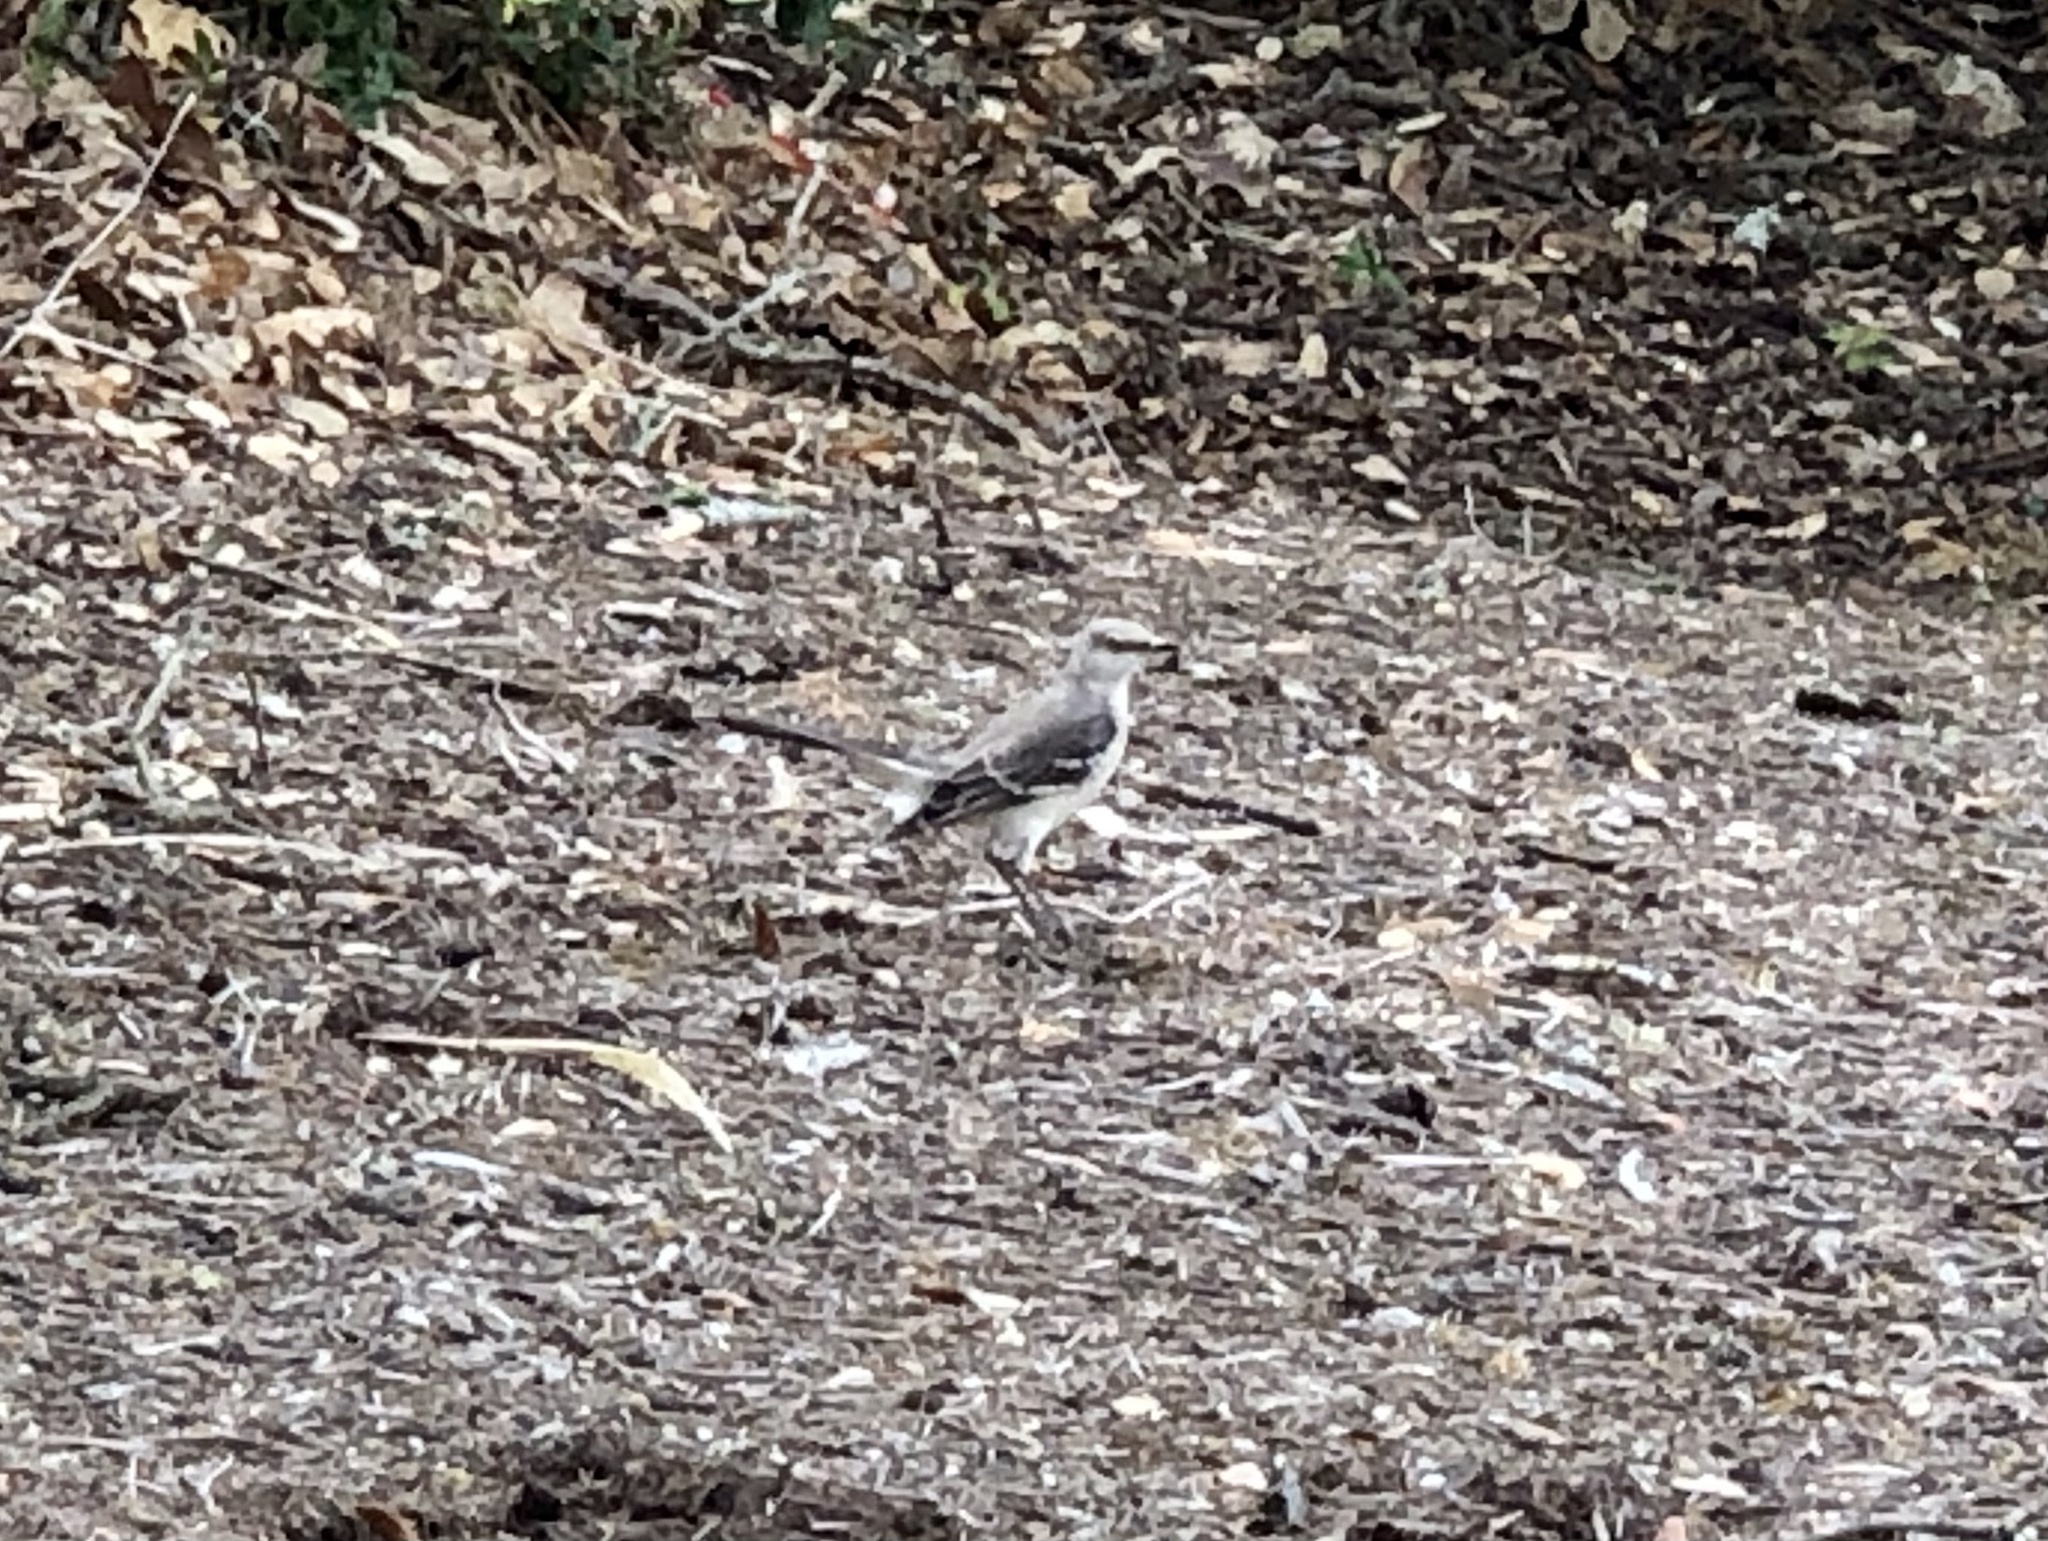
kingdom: Animalia
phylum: Chordata
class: Aves
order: Passeriformes
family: Mimidae
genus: Mimus
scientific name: Mimus polyglottos
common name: Northern mockingbird
